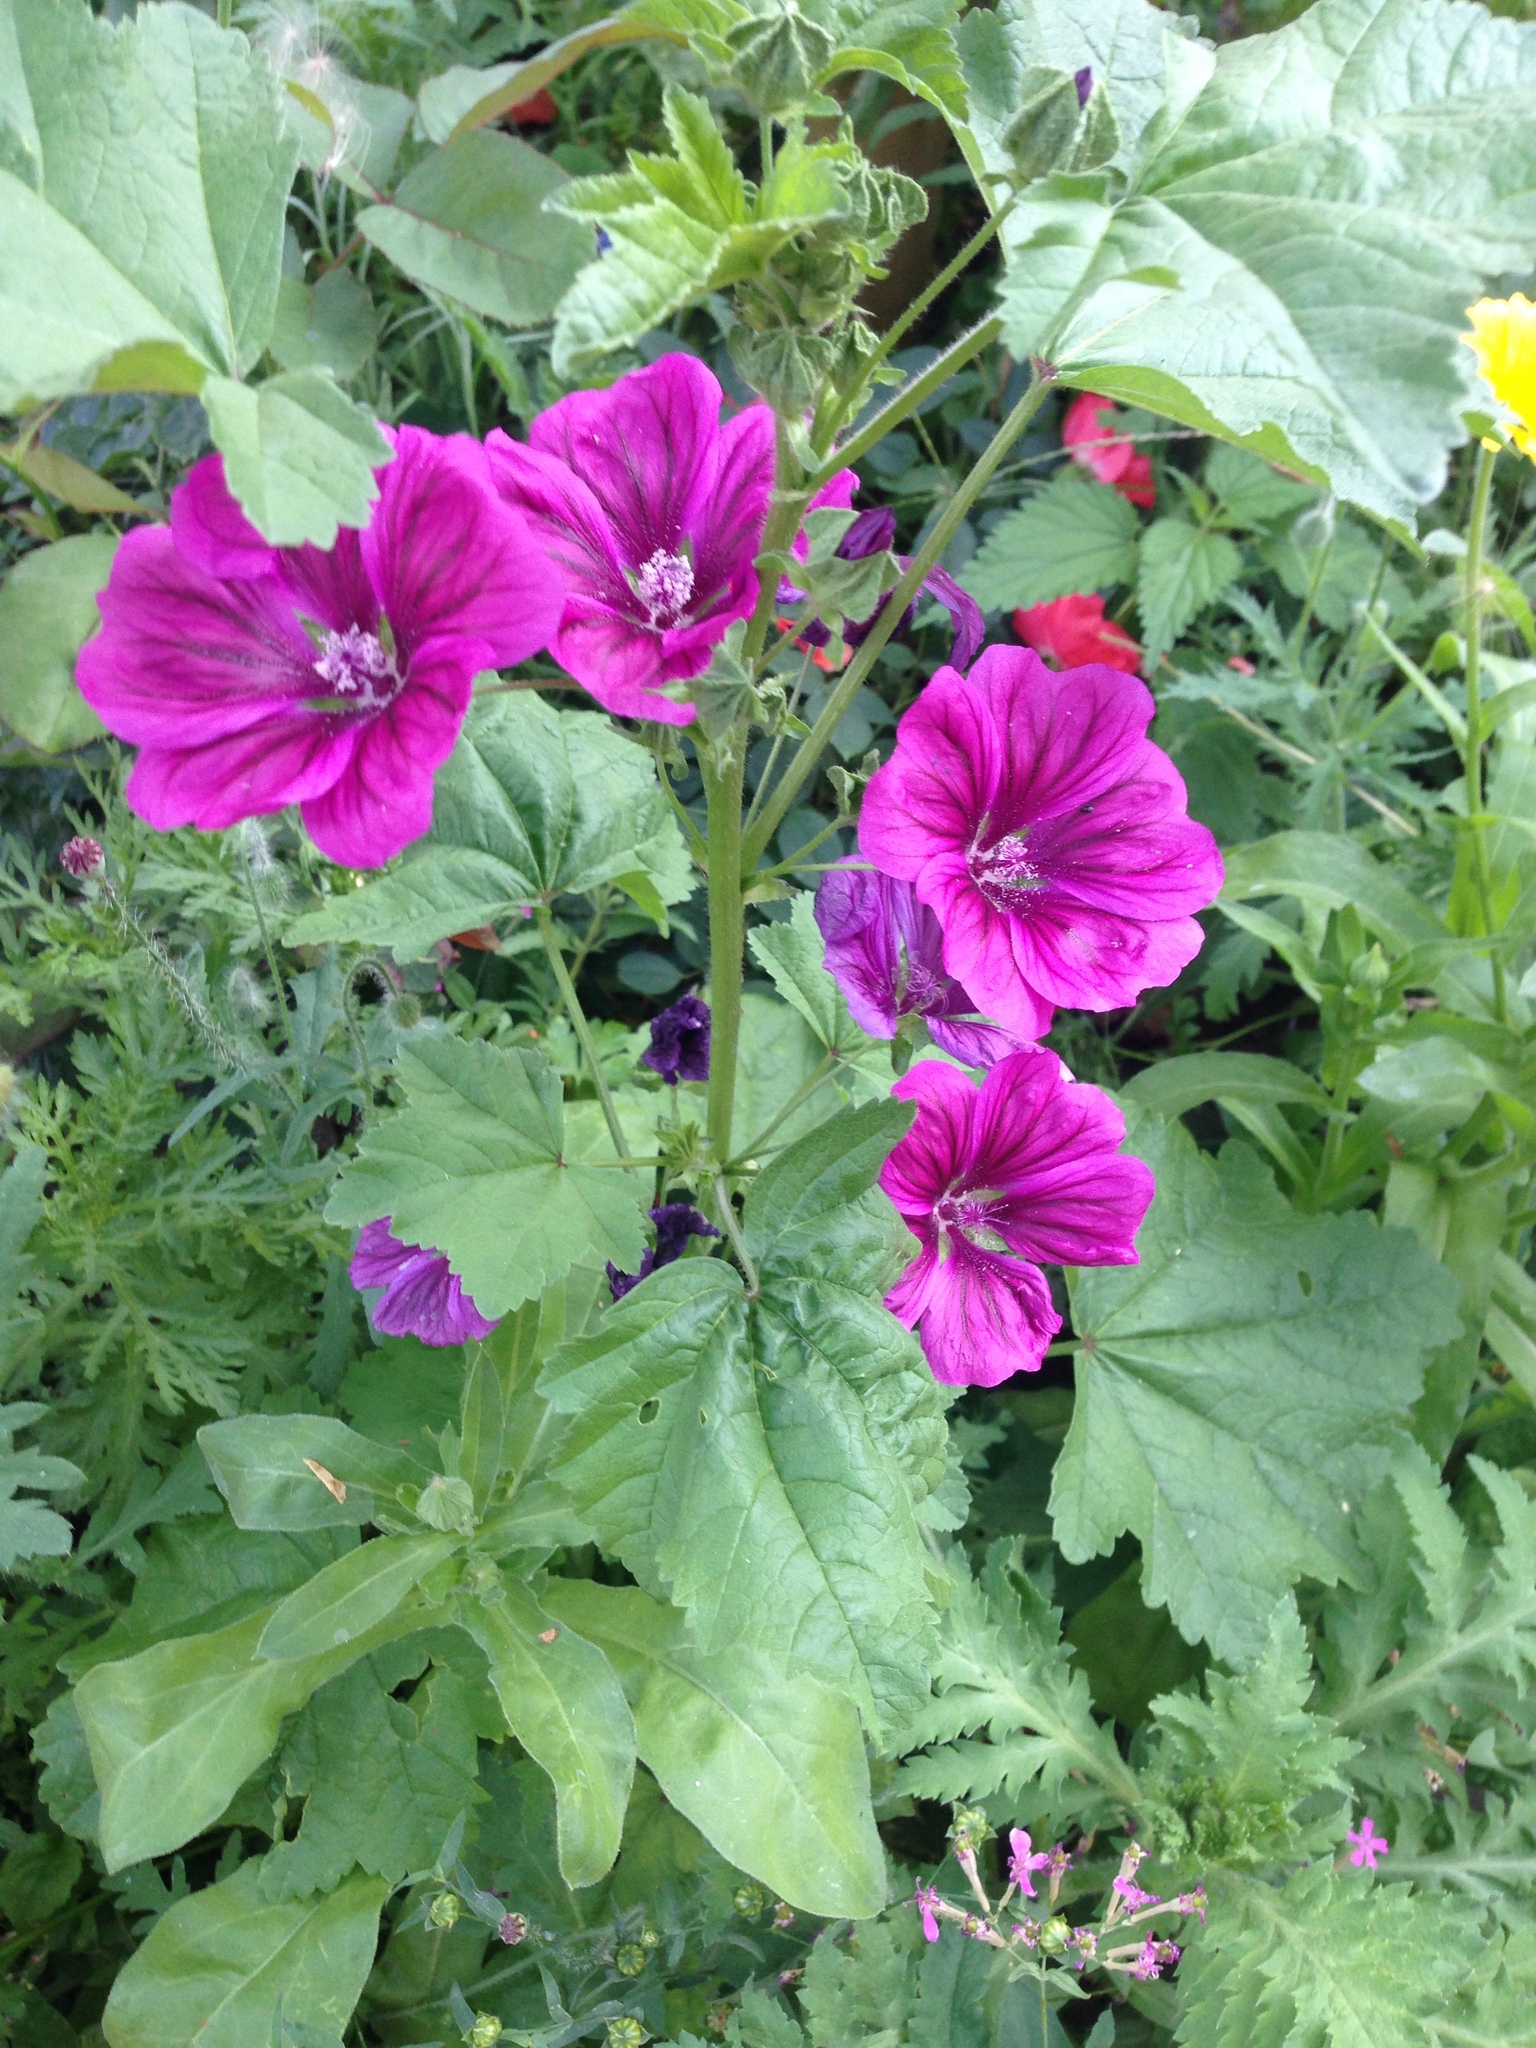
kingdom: Plantae
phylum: Tracheophyta
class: Magnoliopsida
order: Malvales
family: Malvaceae
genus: Malva
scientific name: Malva sylvestris
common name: Common mallow
